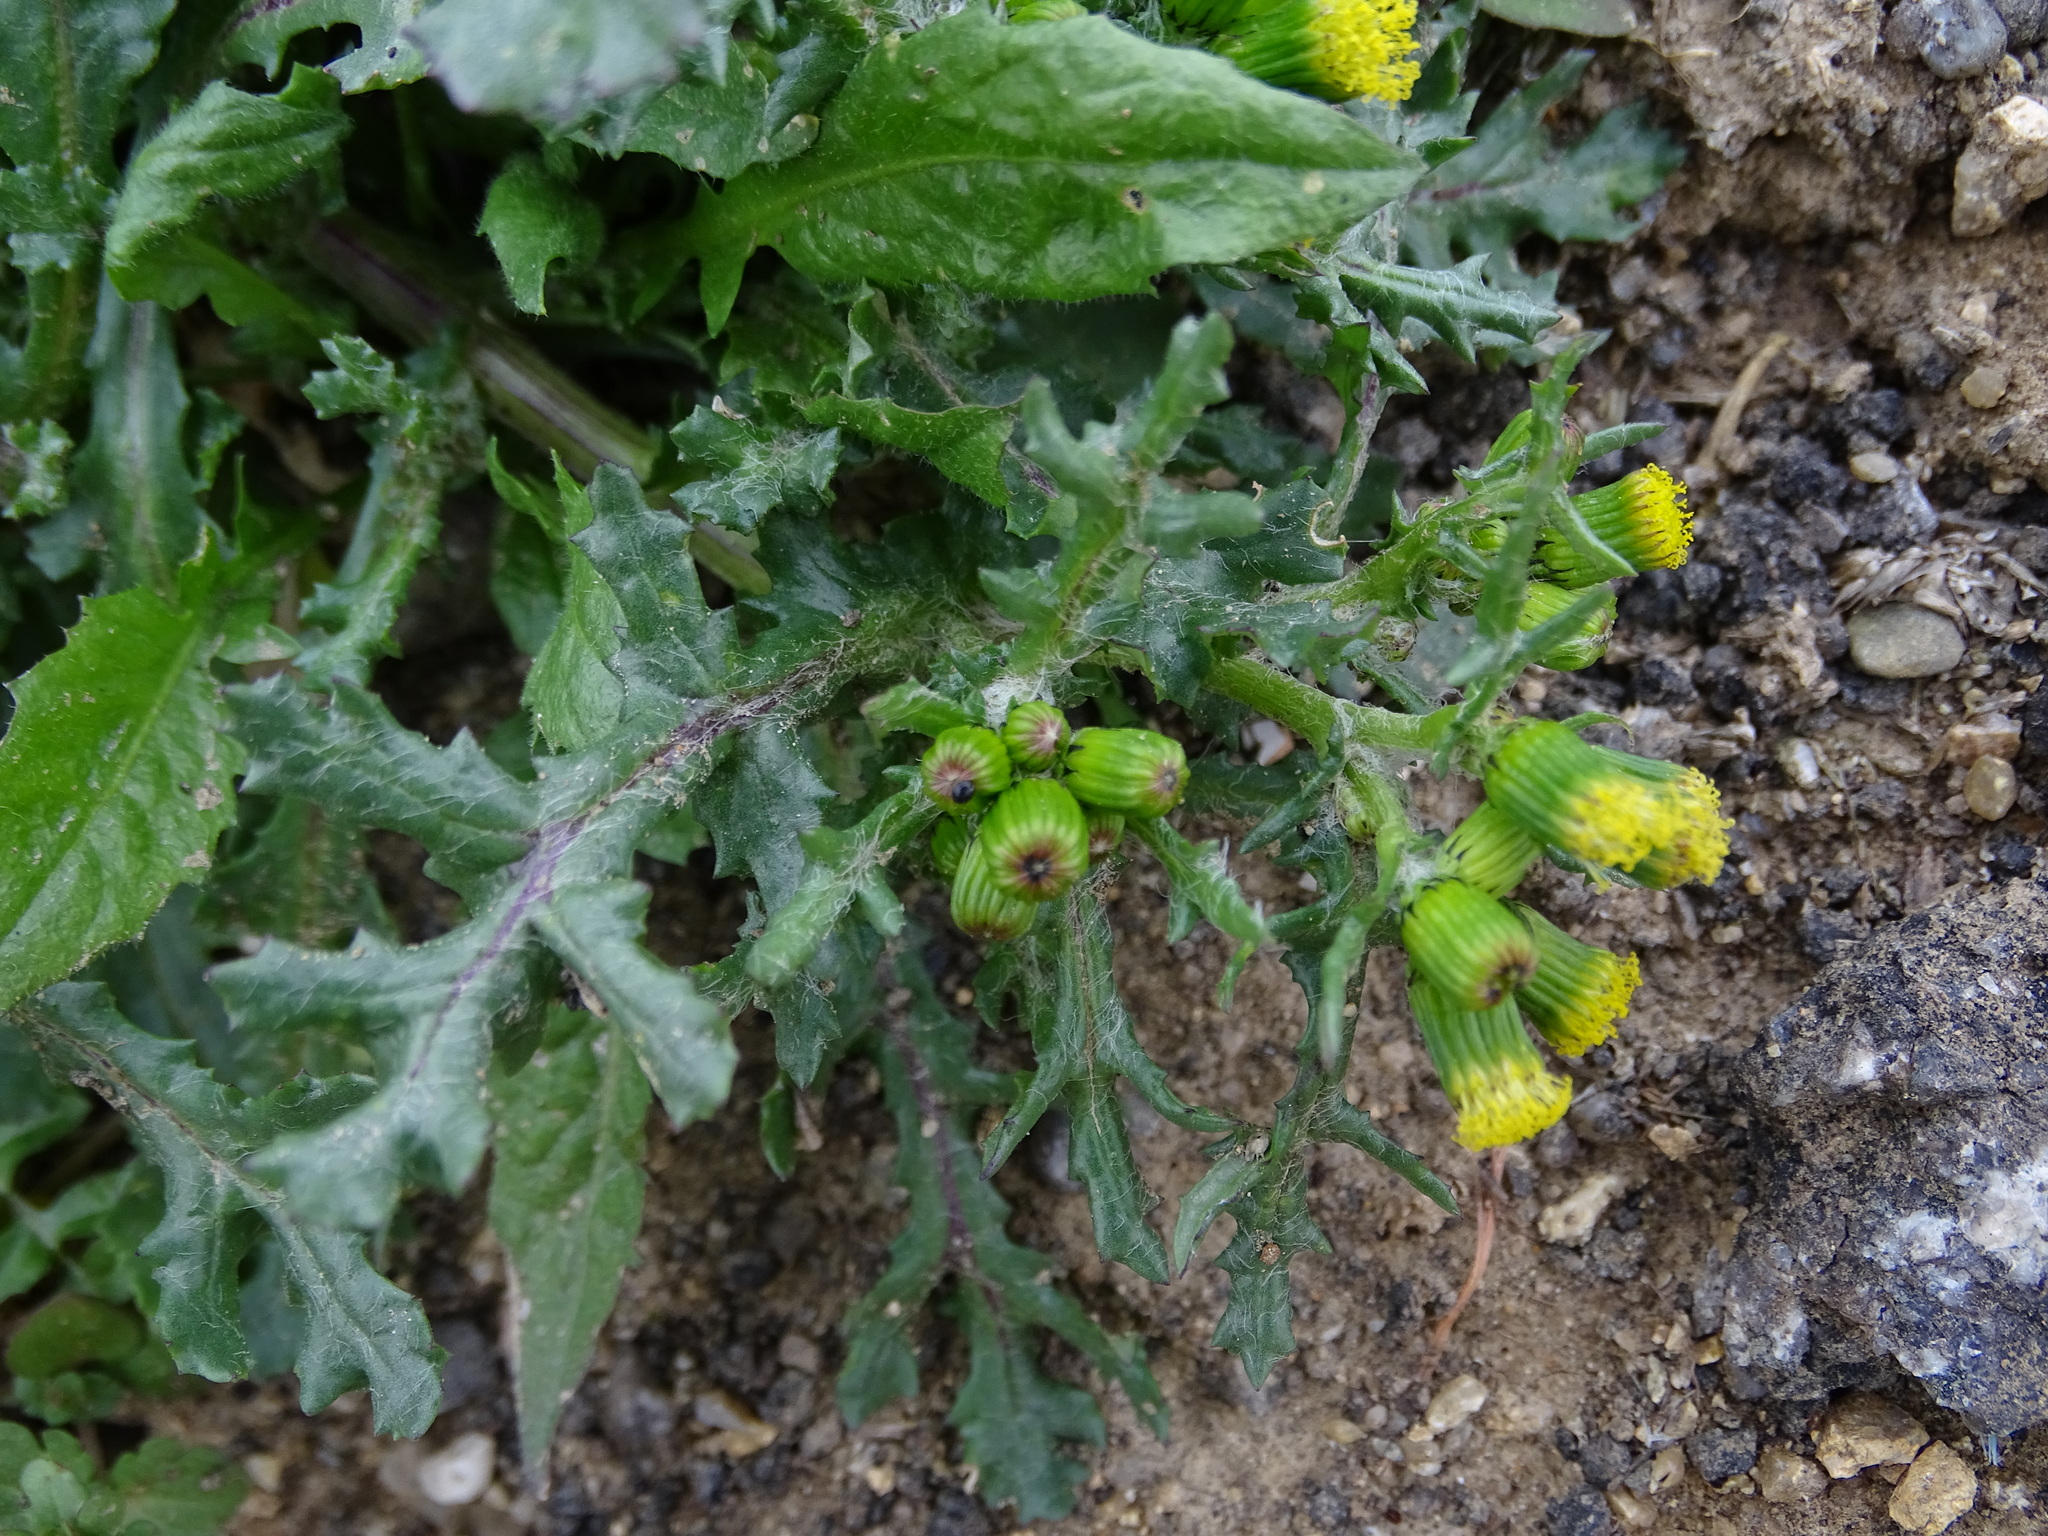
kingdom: Plantae
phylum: Tracheophyta
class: Magnoliopsida
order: Asterales
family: Asteraceae
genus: Senecio
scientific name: Senecio vulgaris
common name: Old-man-in-the-spring
